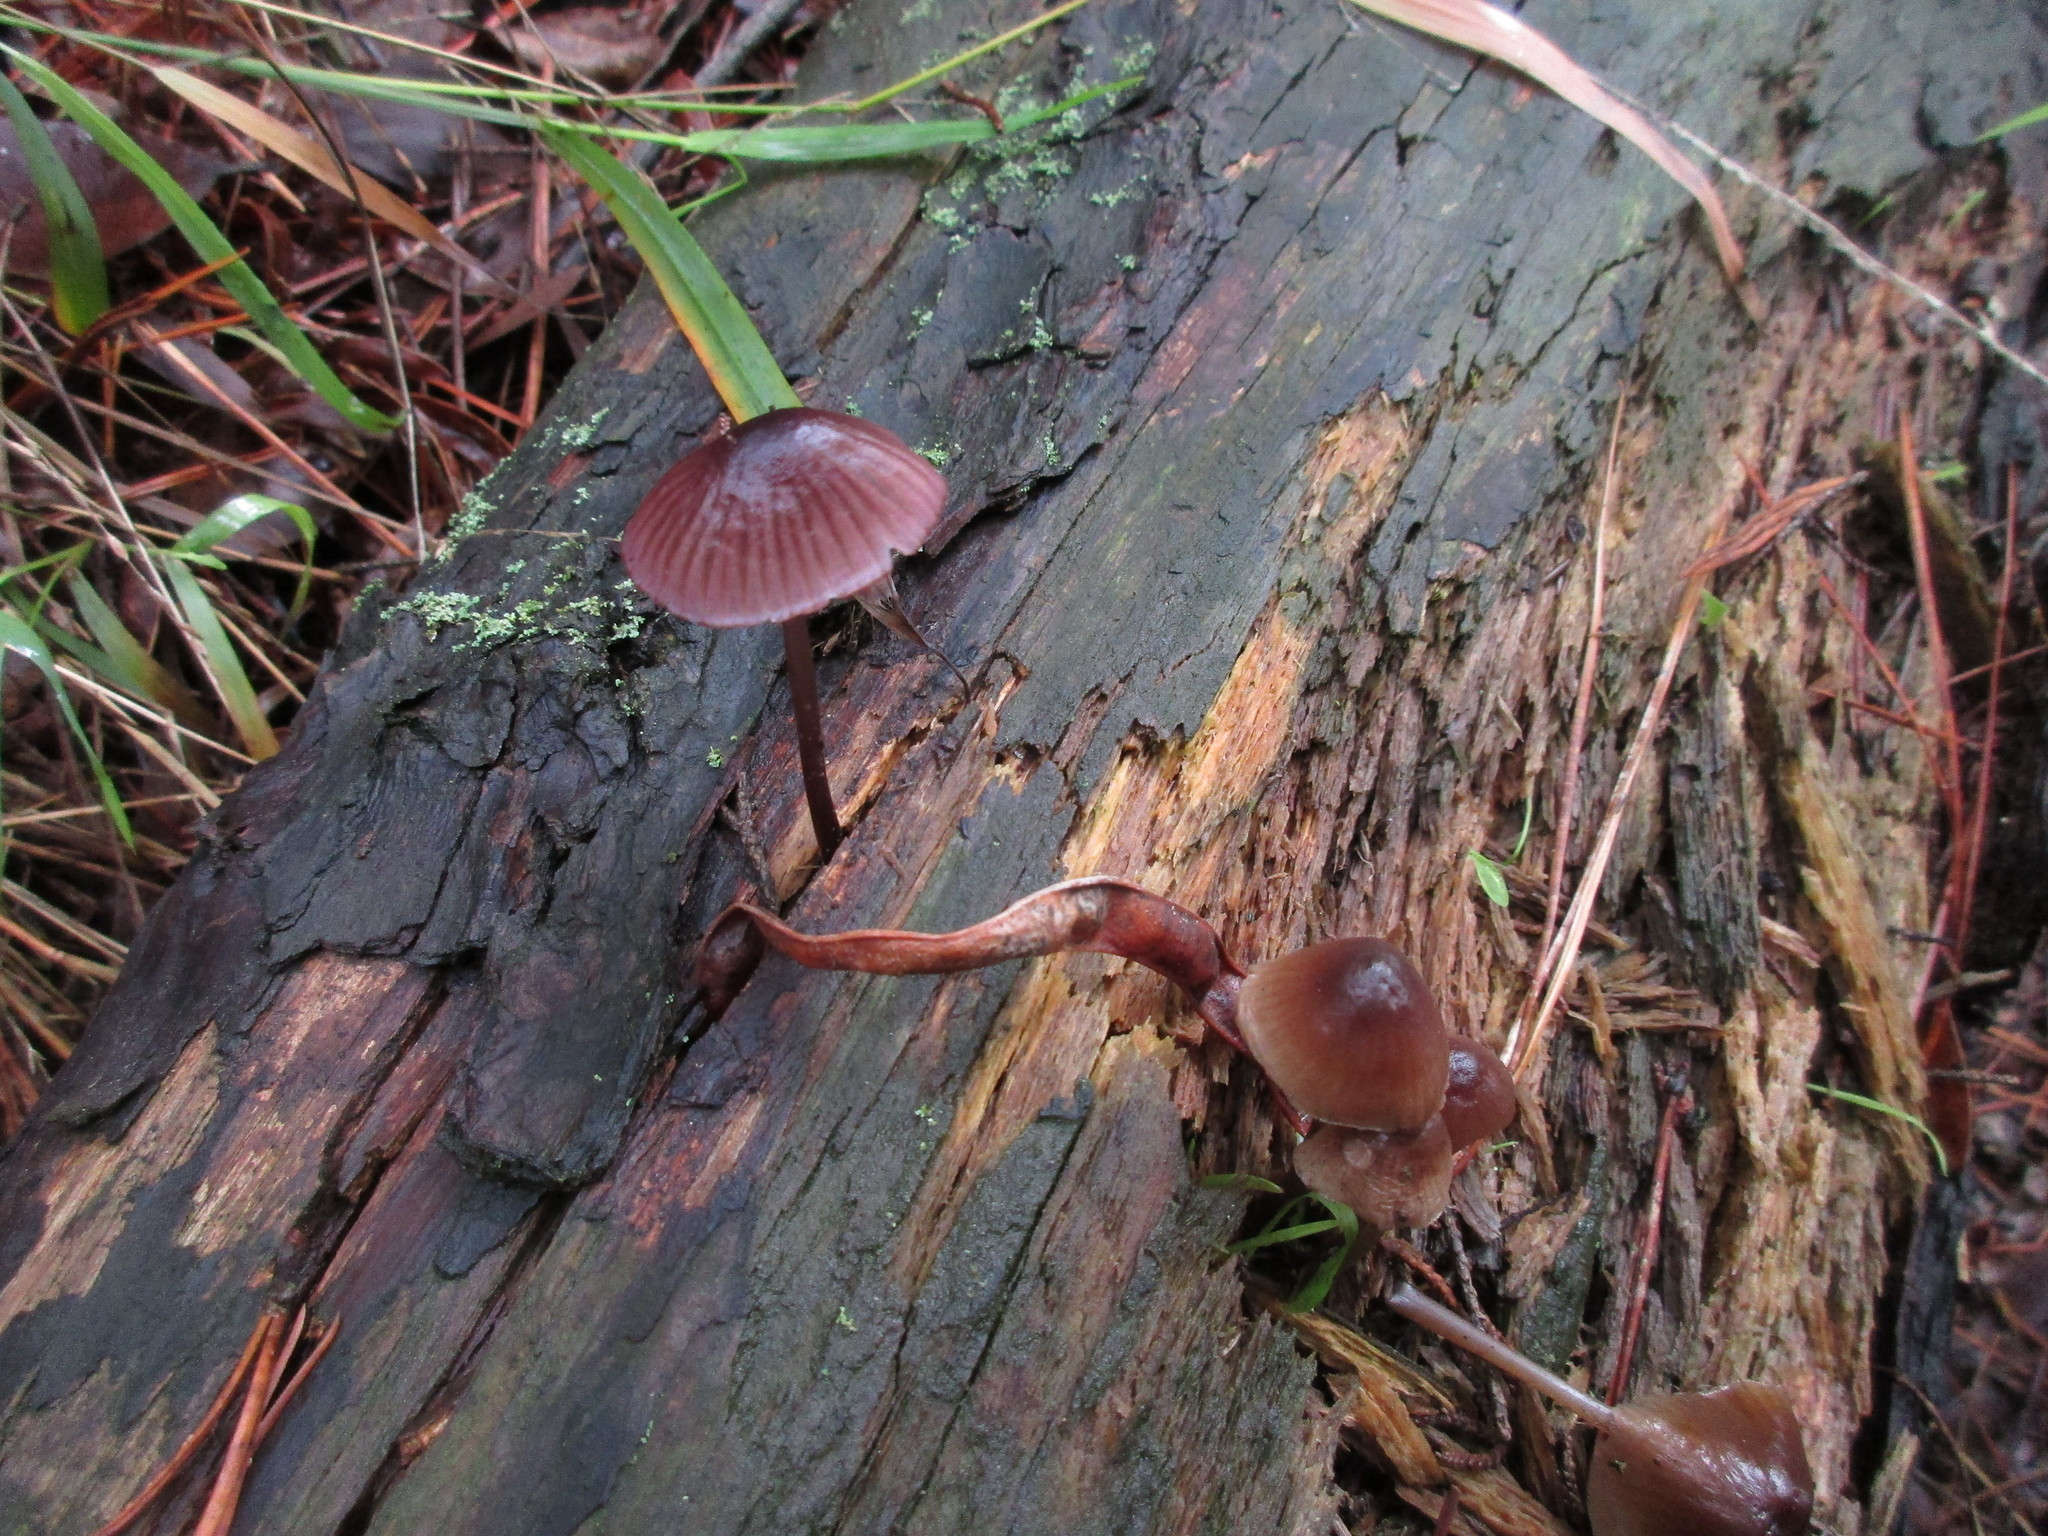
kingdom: Fungi
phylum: Basidiomycota
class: Agaricomycetes
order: Agaricales
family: Mycenaceae
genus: Mycena
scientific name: Mycena purpureofusca
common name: Purple edge bonnet
